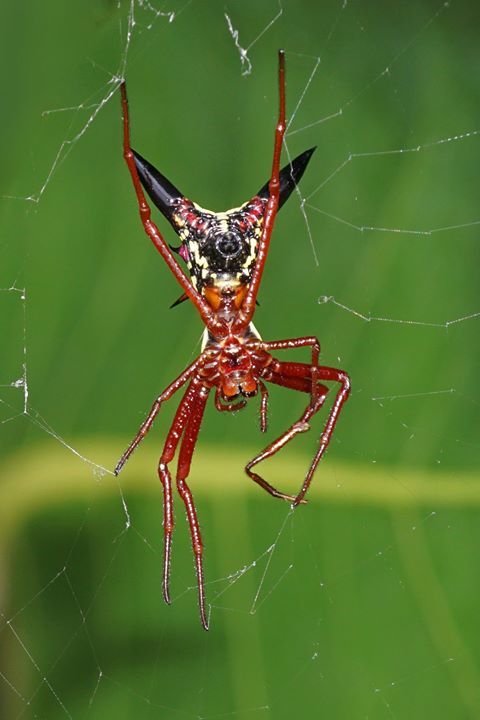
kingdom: Animalia
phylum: Arthropoda
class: Arachnida
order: Araneae
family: Araneidae
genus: Micrathena
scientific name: Micrathena sagittata
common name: Orb weavers
